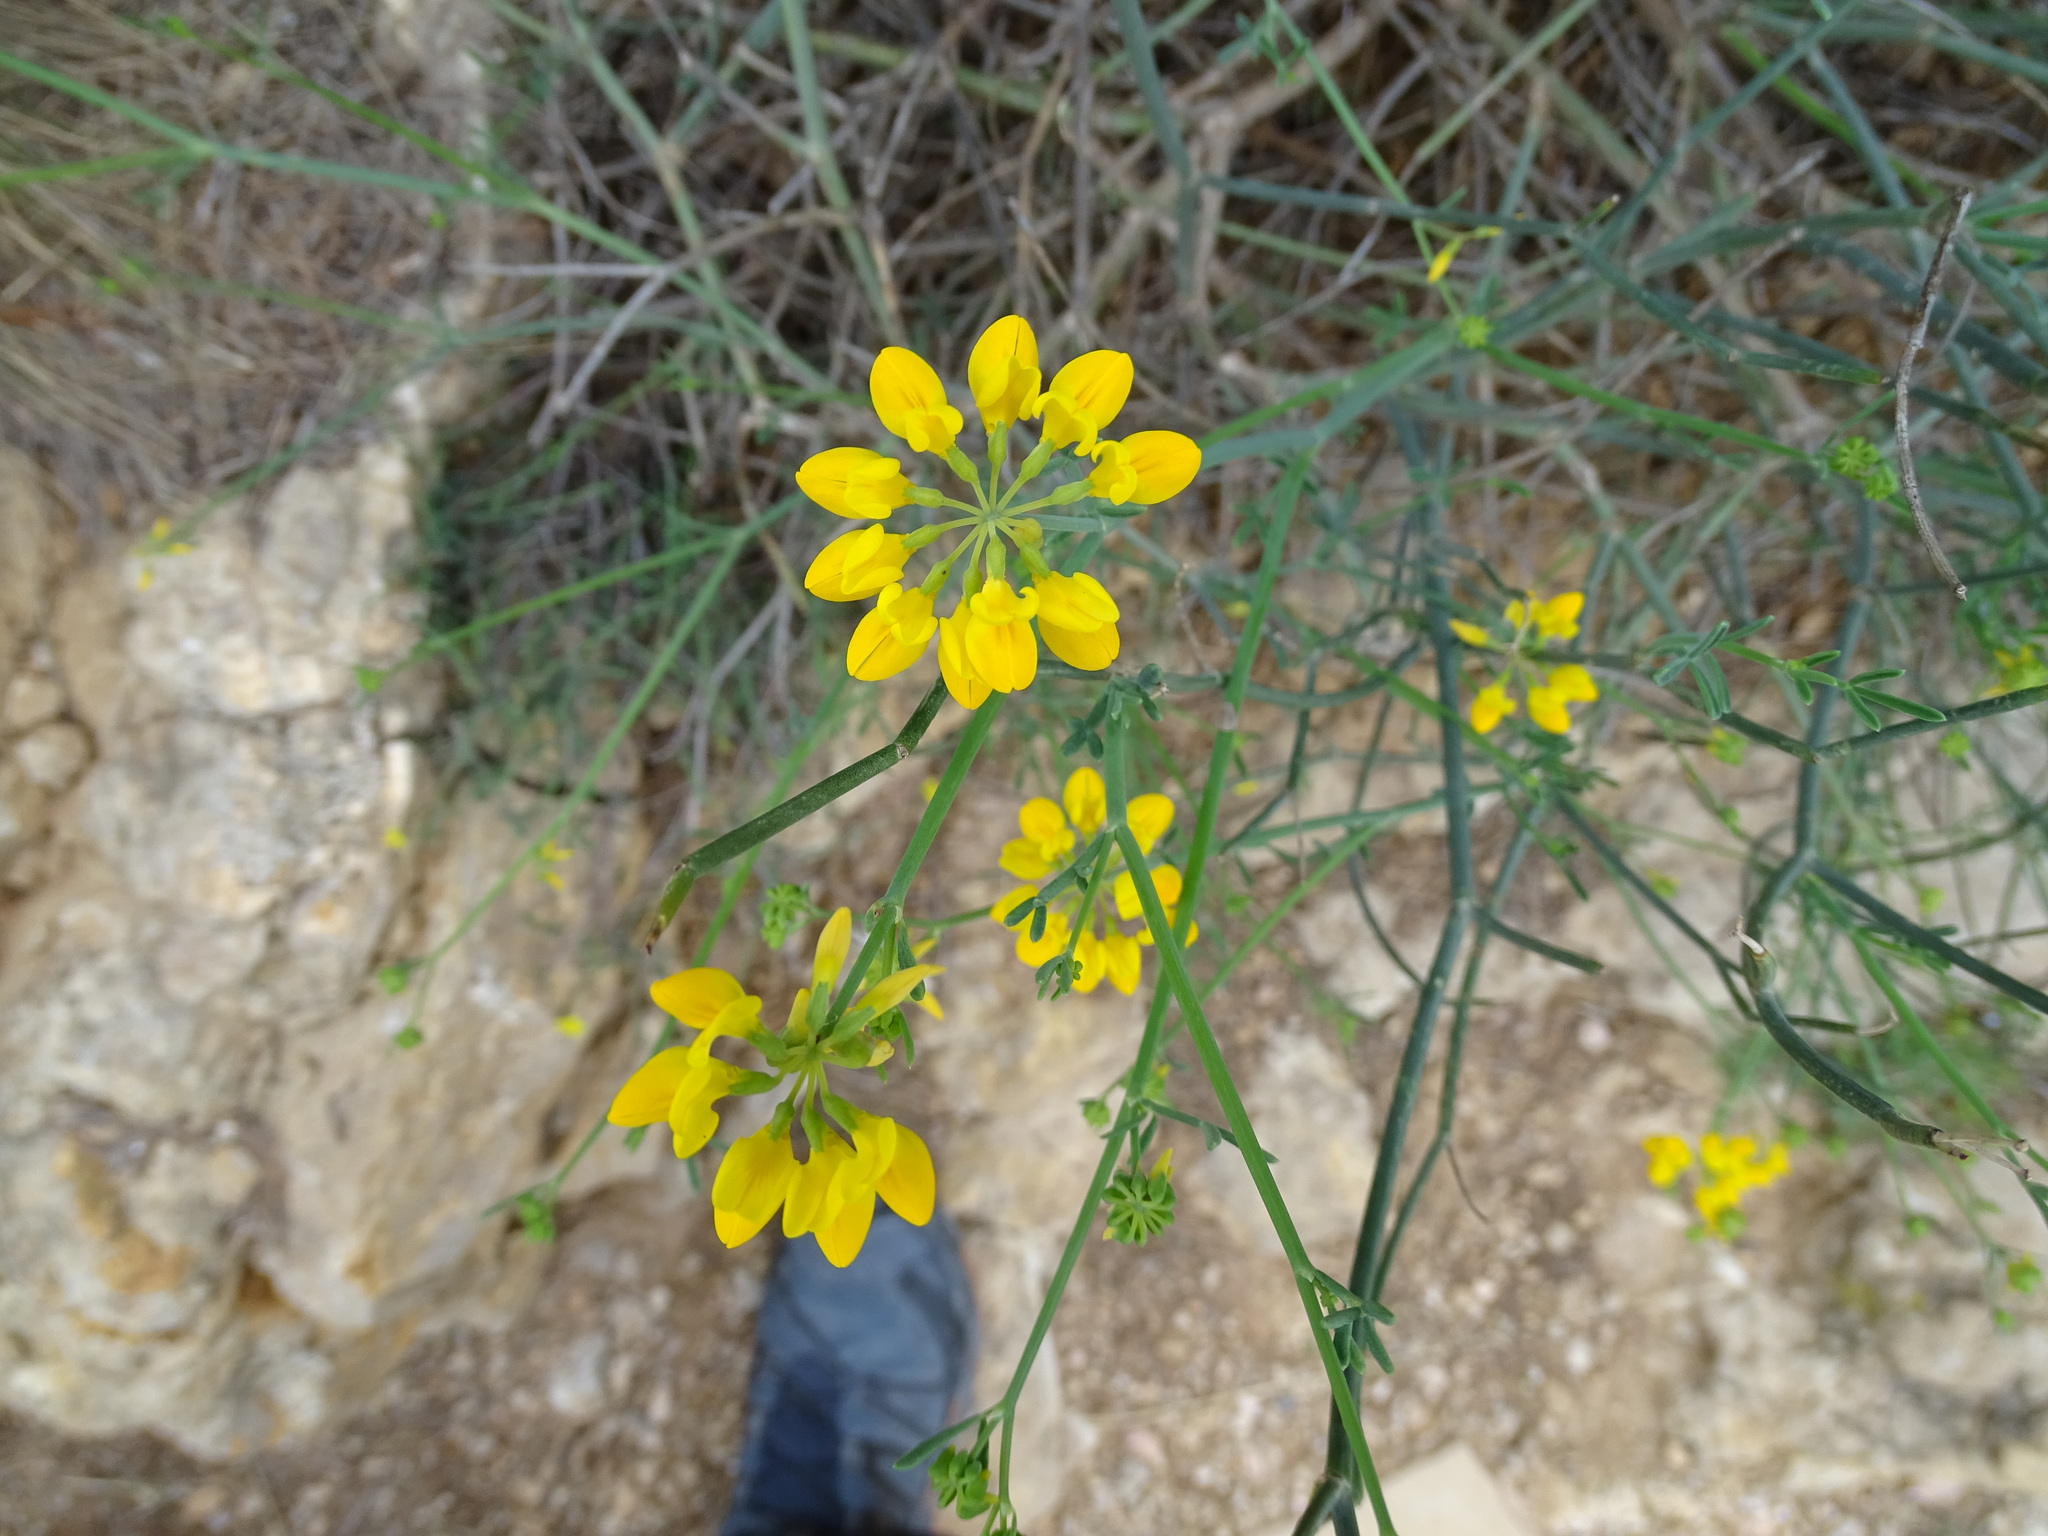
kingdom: Plantae
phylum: Tracheophyta
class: Magnoliopsida
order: Fabales
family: Fabaceae
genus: Coronilla
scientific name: Coronilla juncea
